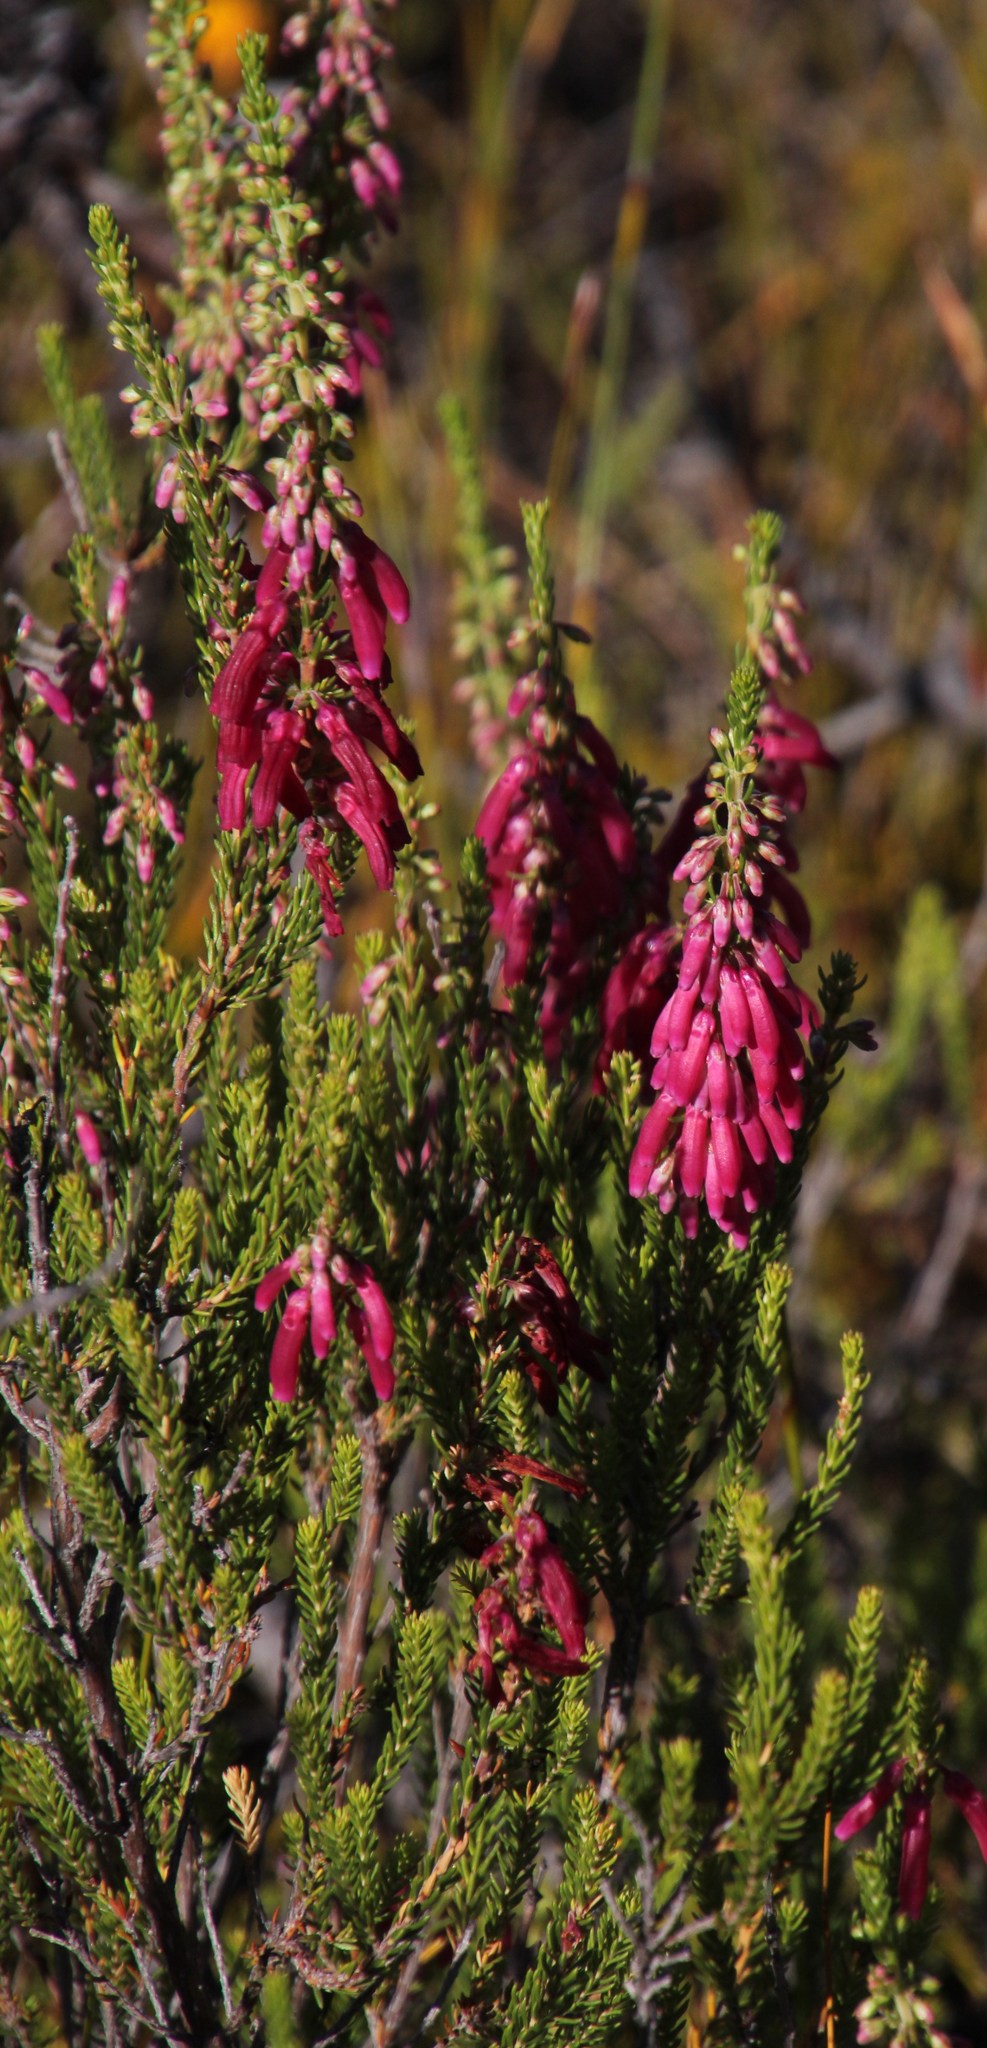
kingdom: Plantae
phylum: Tracheophyta
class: Magnoliopsida
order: Ericales
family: Ericaceae
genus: Erica
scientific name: Erica mammosa
